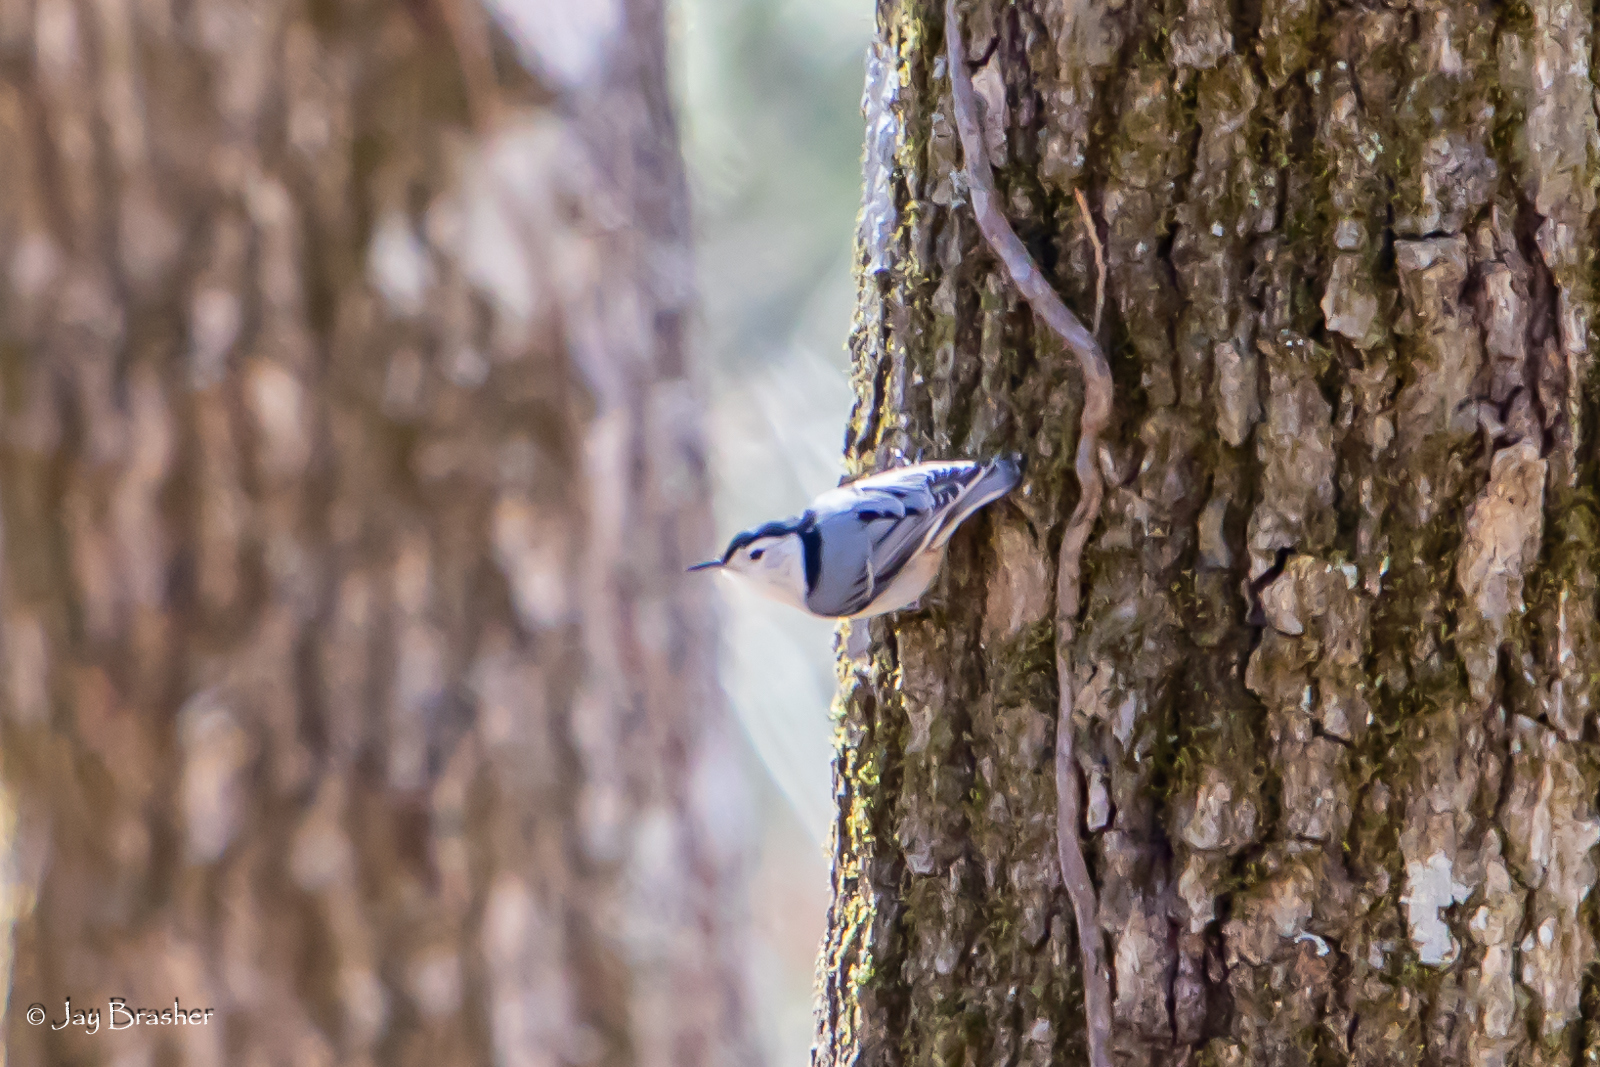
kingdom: Animalia
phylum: Chordata
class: Aves
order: Passeriformes
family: Sittidae
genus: Sitta
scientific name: Sitta carolinensis
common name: White-breasted nuthatch
